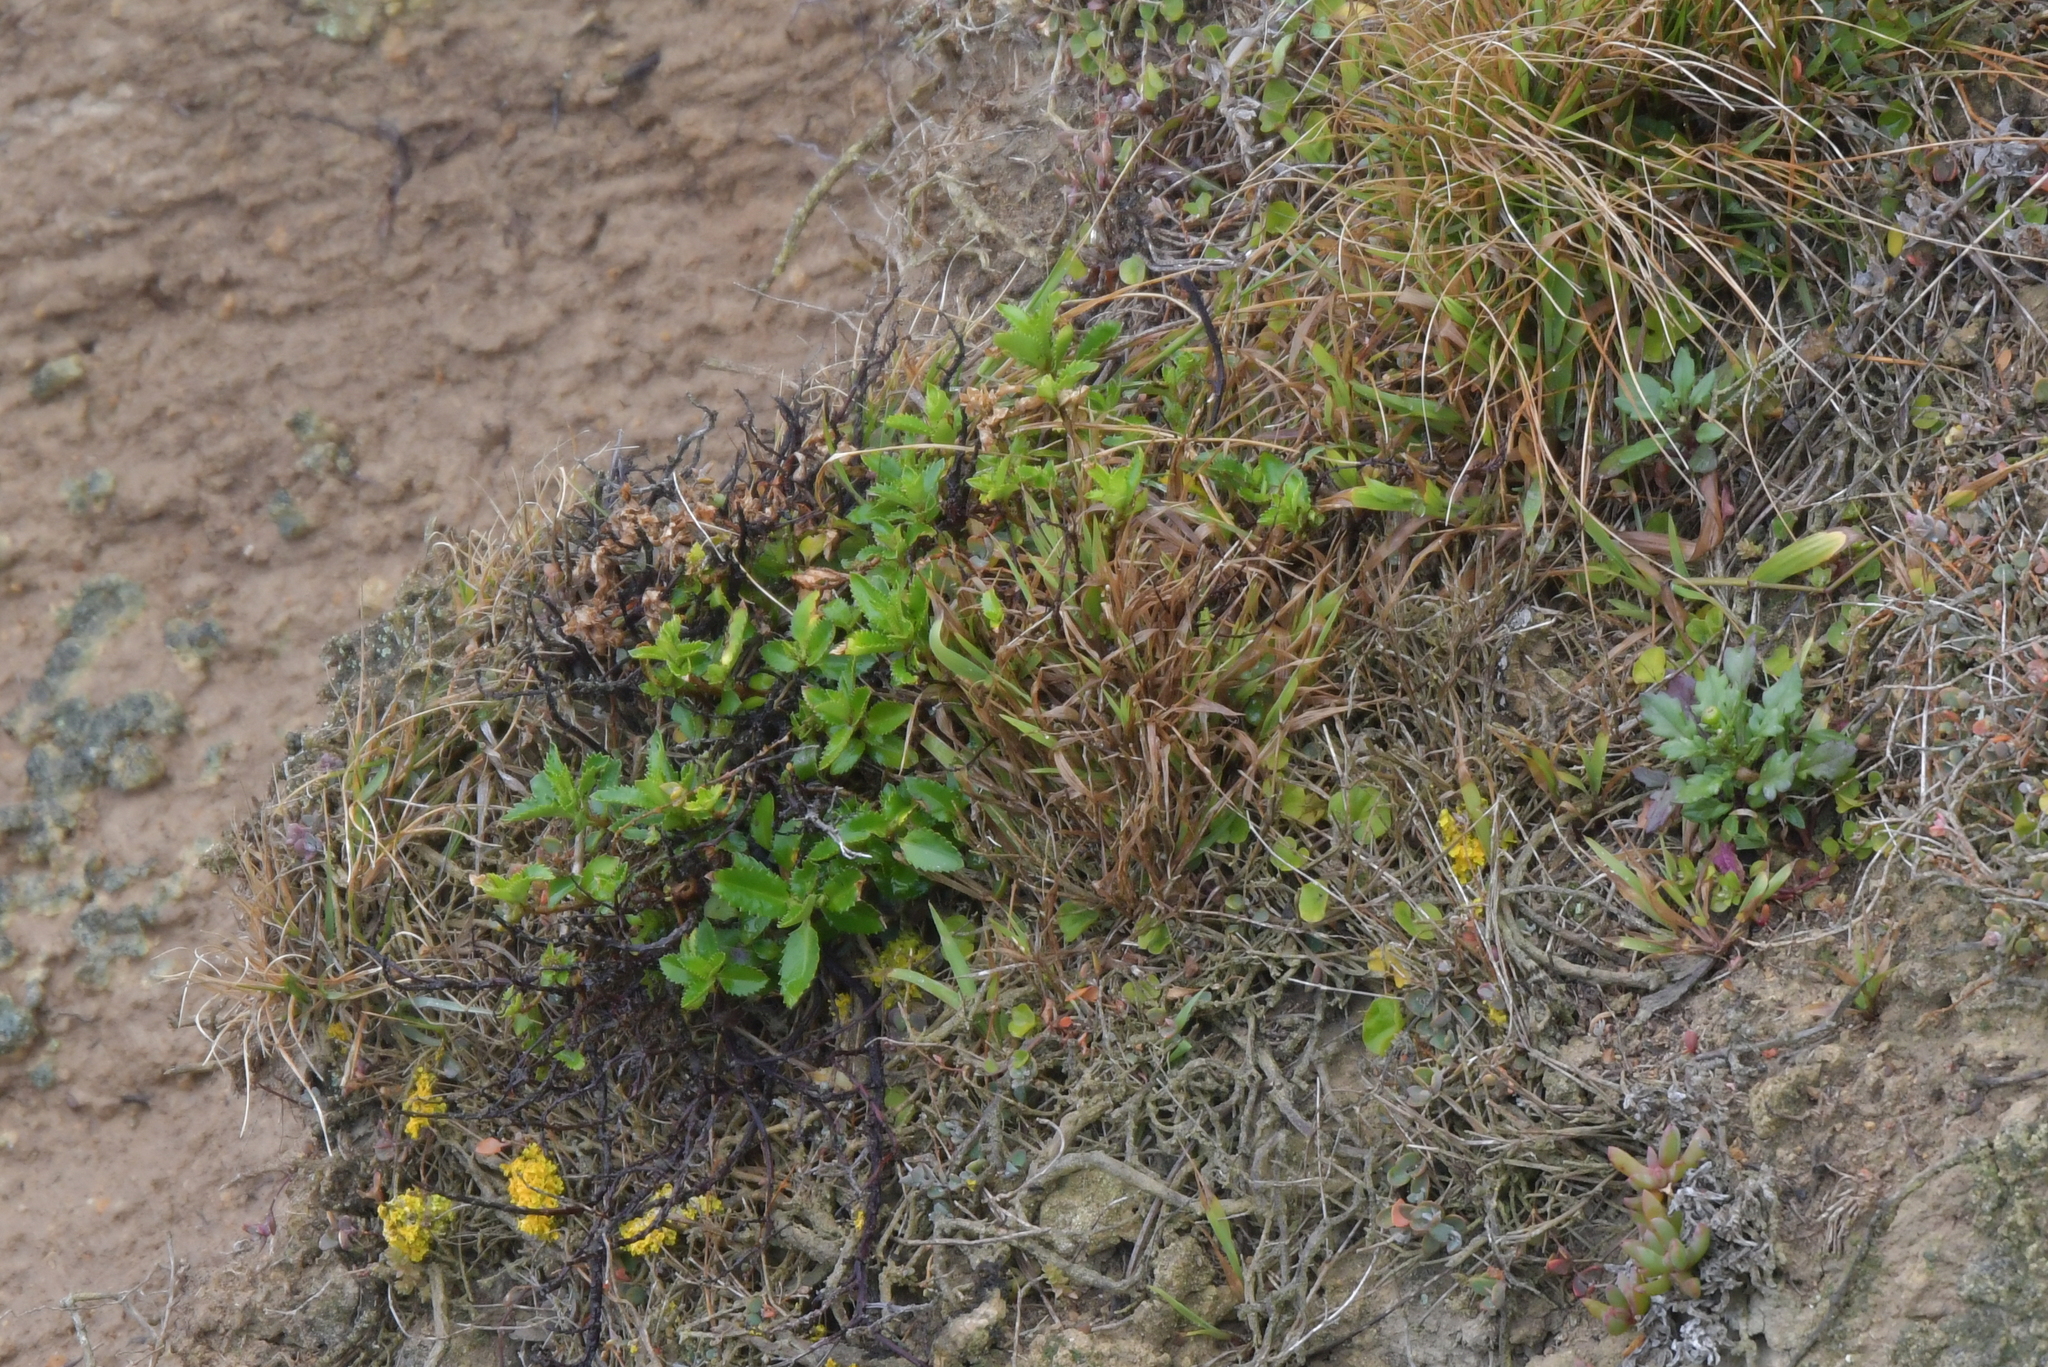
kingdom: Plantae
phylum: Tracheophyta
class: Magnoliopsida
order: Saxifragales
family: Haloragaceae
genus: Haloragis
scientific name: Haloragis erecta
